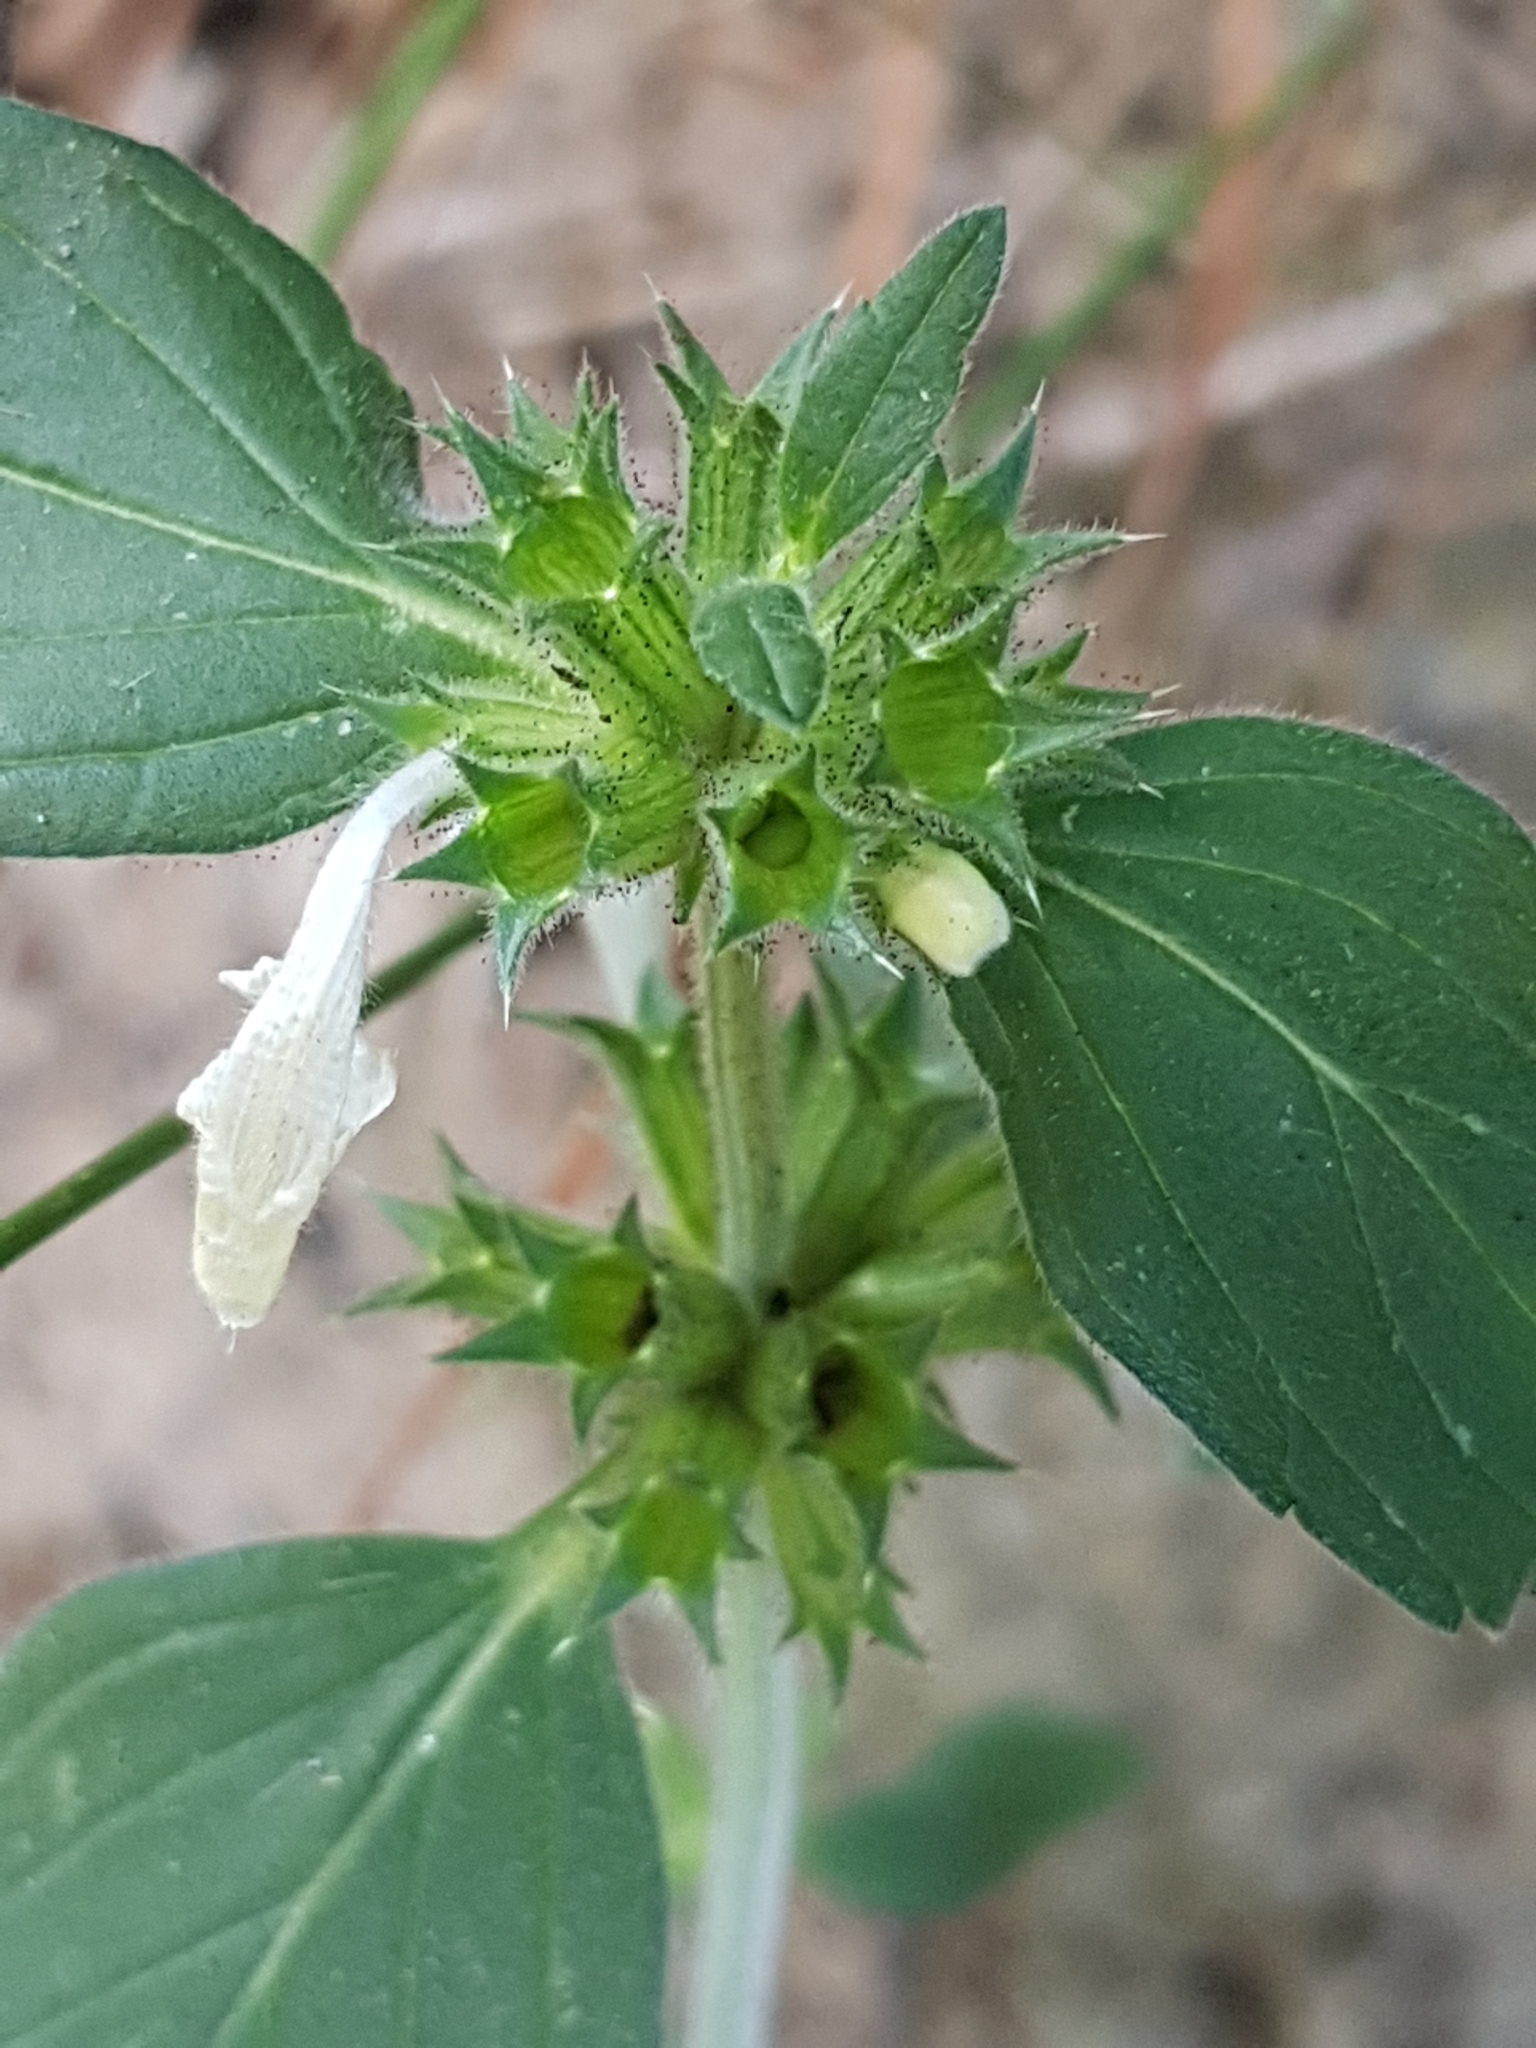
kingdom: Plantae
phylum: Tracheophyta
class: Magnoliopsida
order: Lamiales
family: Lamiaceae
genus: Galeopsis
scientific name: Galeopsis segetum
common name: Downy hemp-nettle
